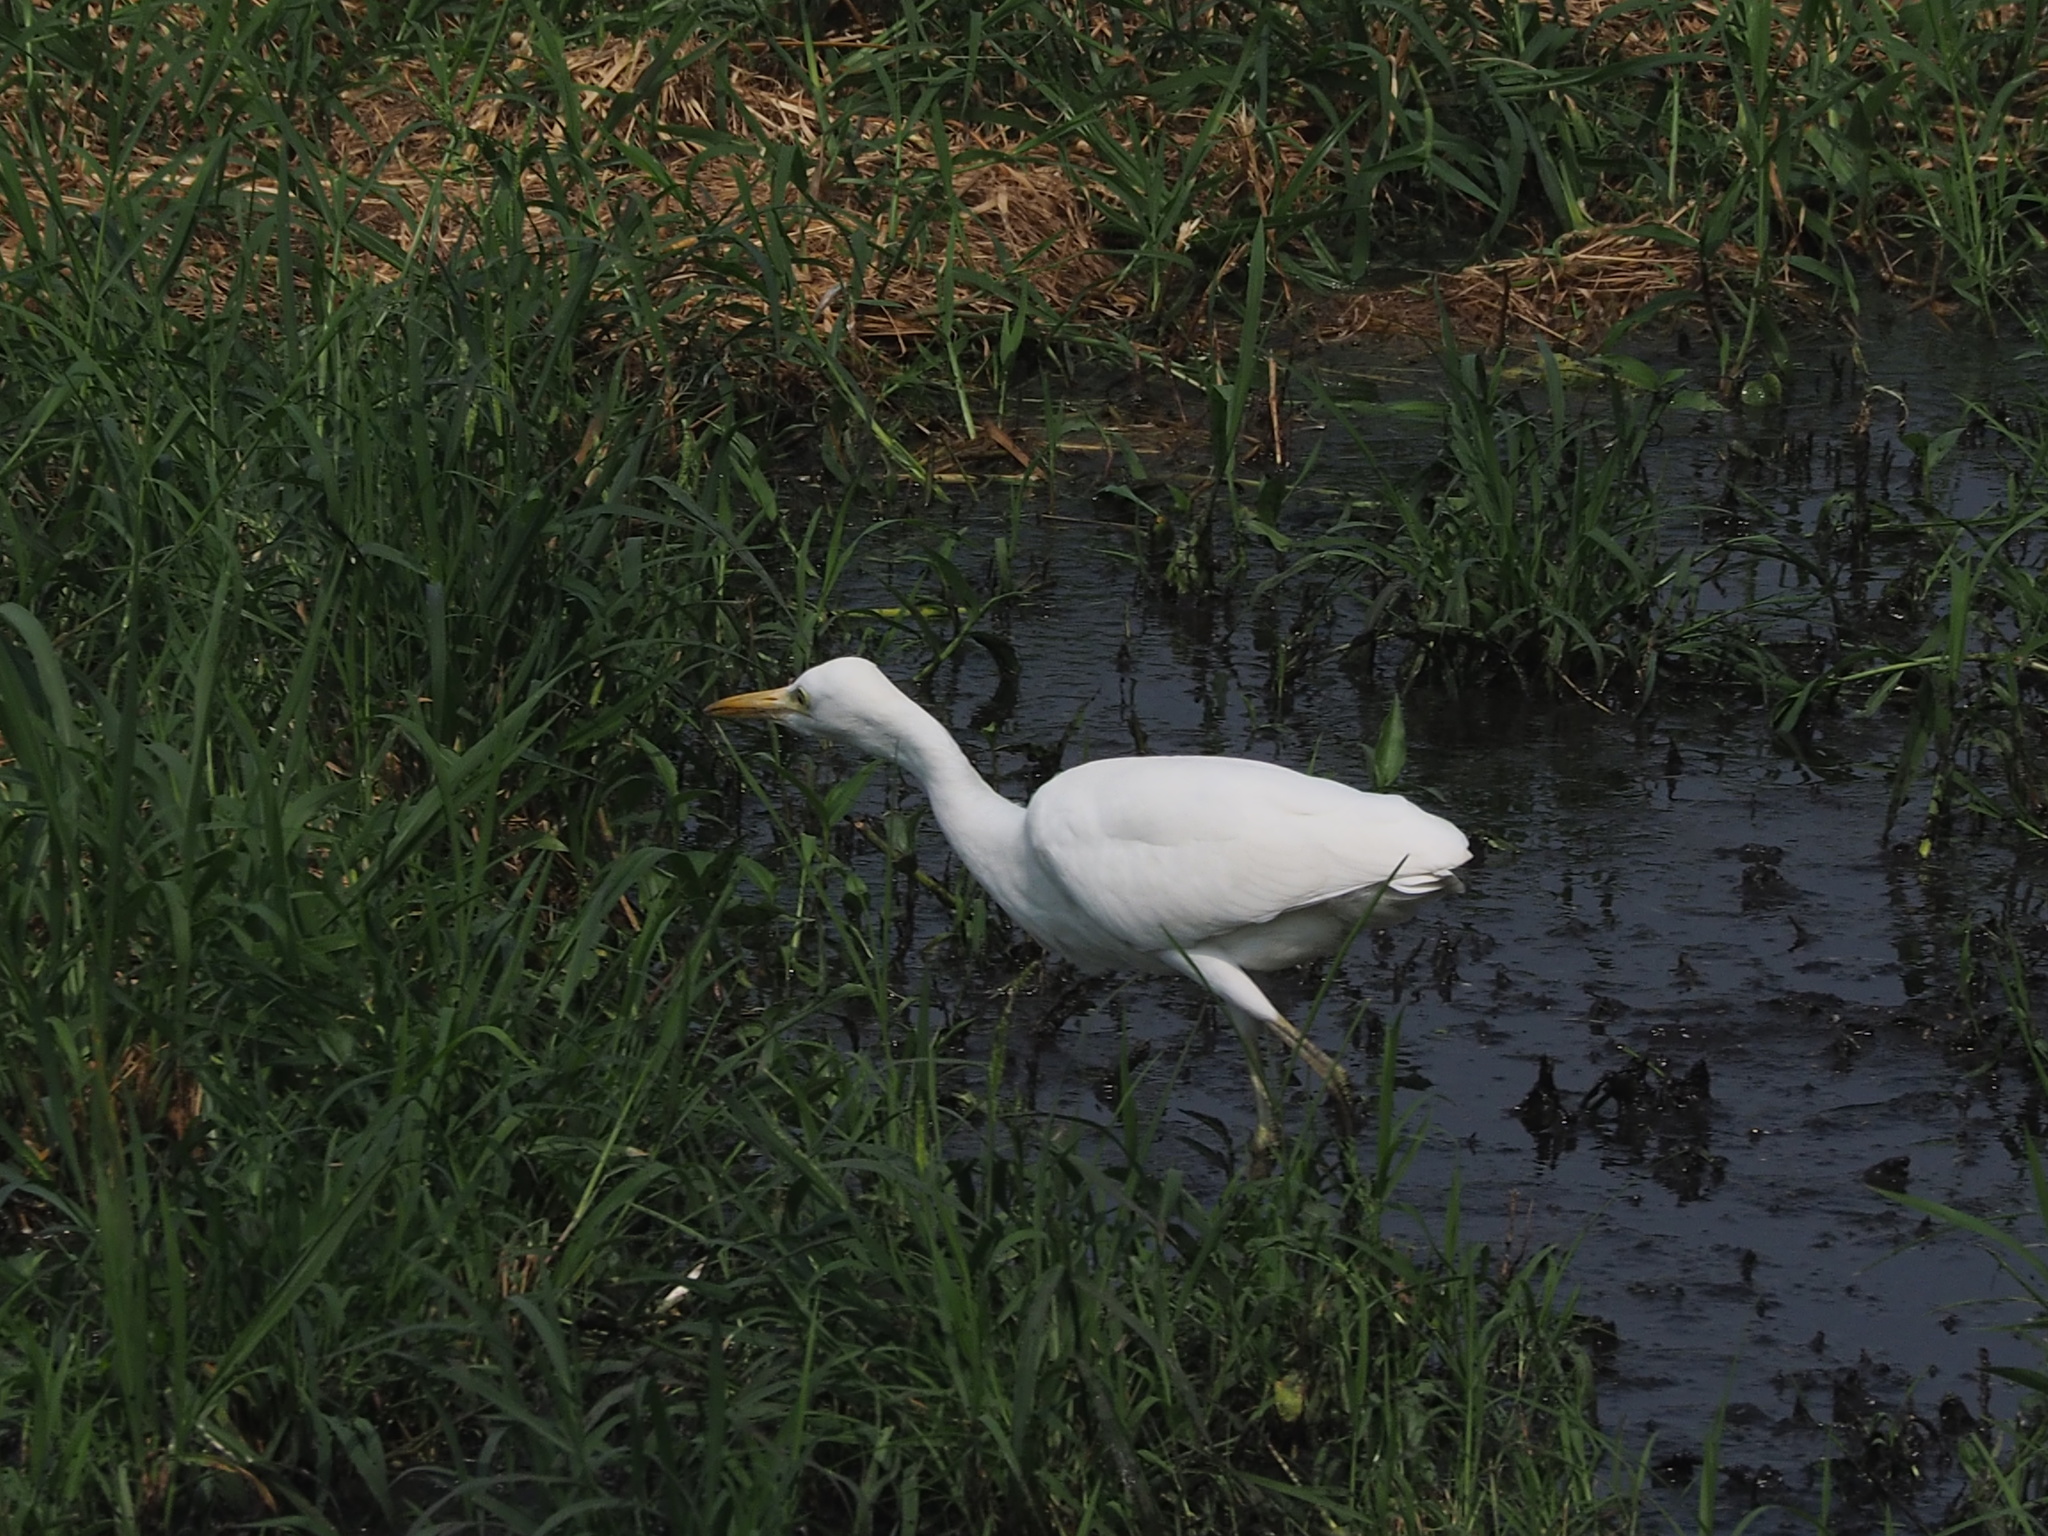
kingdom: Animalia
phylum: Chordata
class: Aves
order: Pelecaniformes
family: Ardeidae
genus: Bubulcus
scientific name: Bubulcus coromandus
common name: Eastern cattle egret
